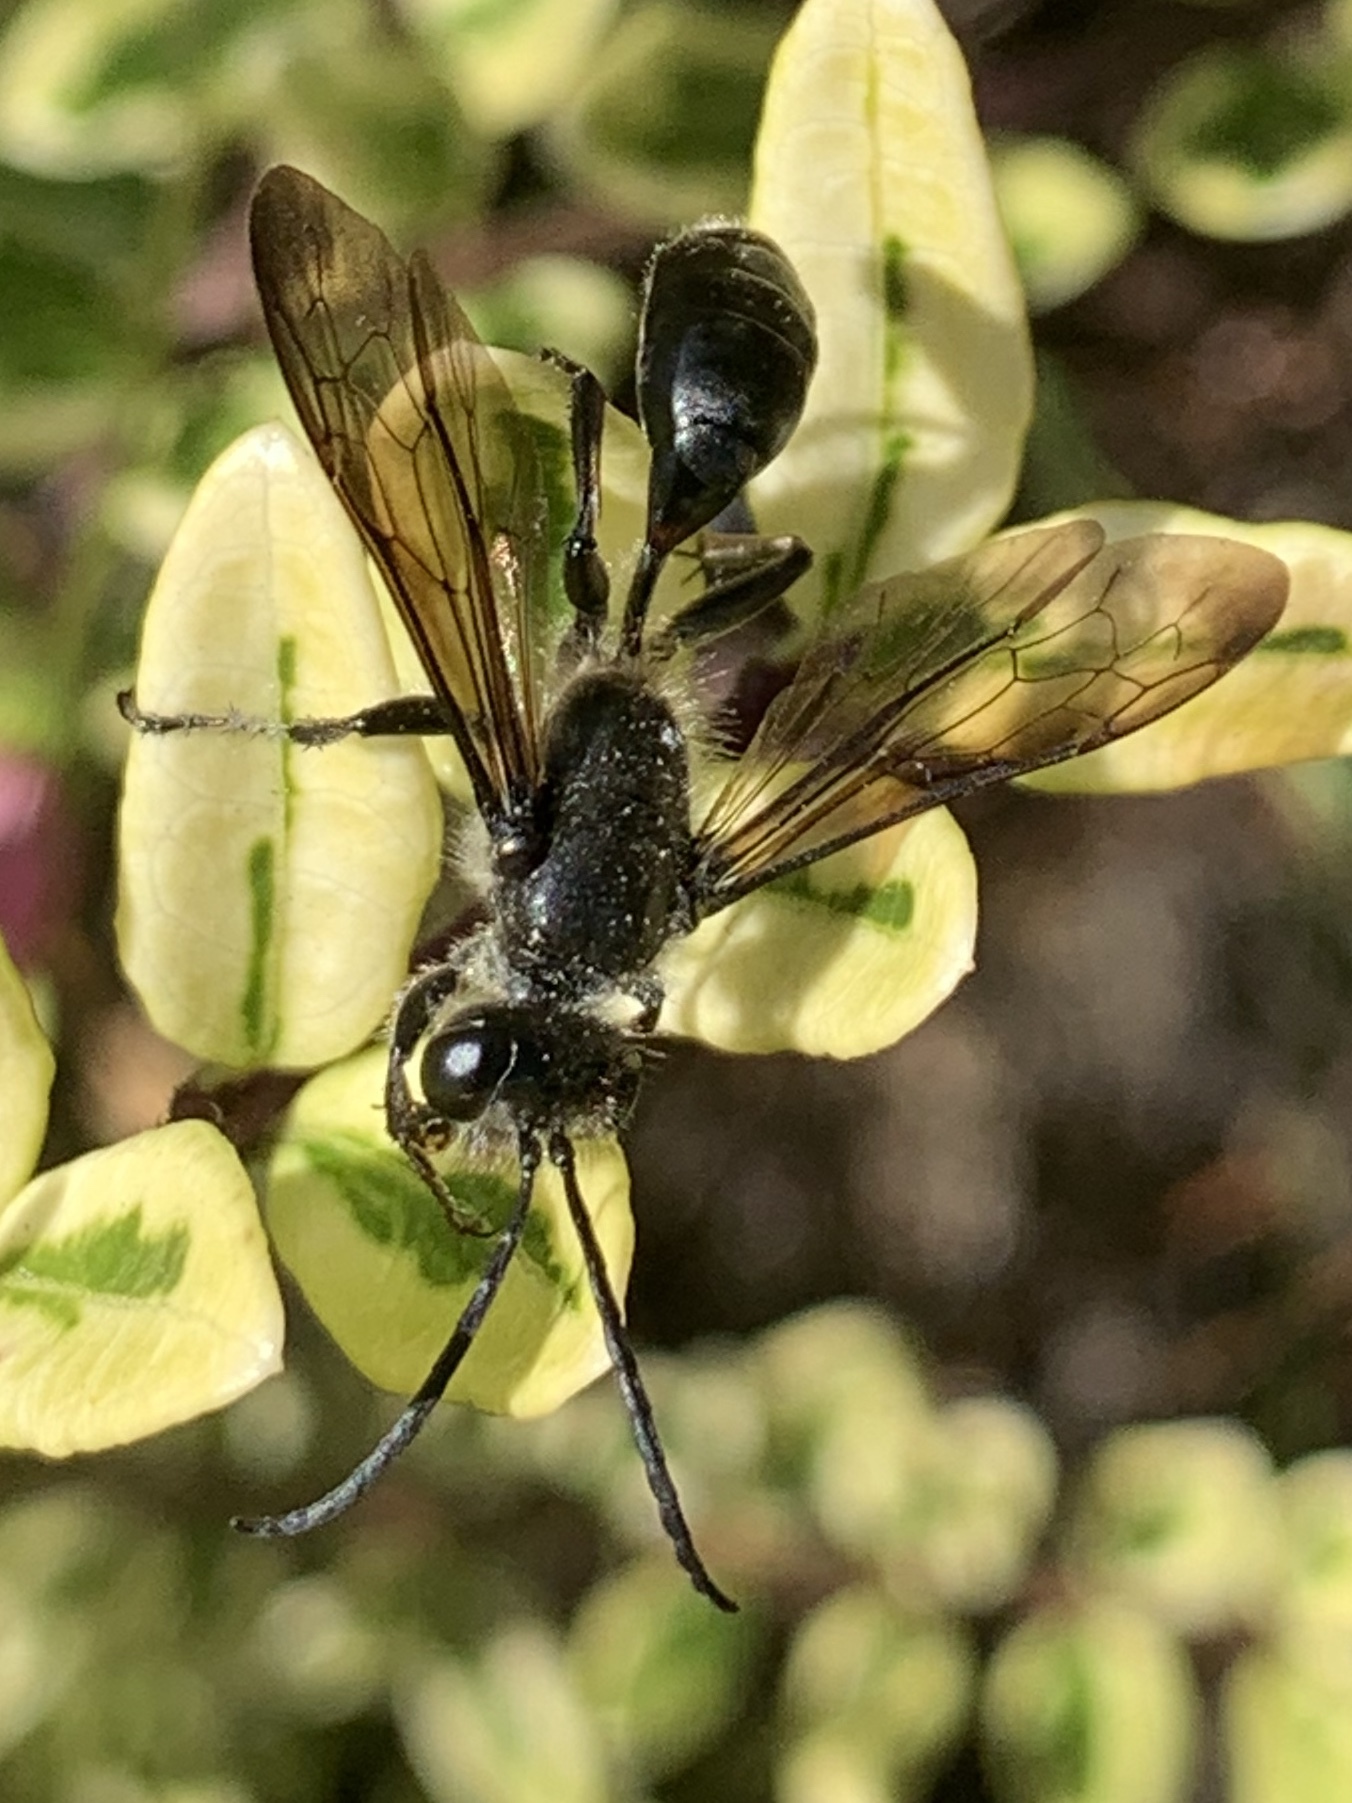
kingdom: Animalia
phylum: Arthropoda
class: Insecta
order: Hymenoptera
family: Sphecidae
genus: Isodontia
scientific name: Isodontia mexicana
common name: Mud dauber
